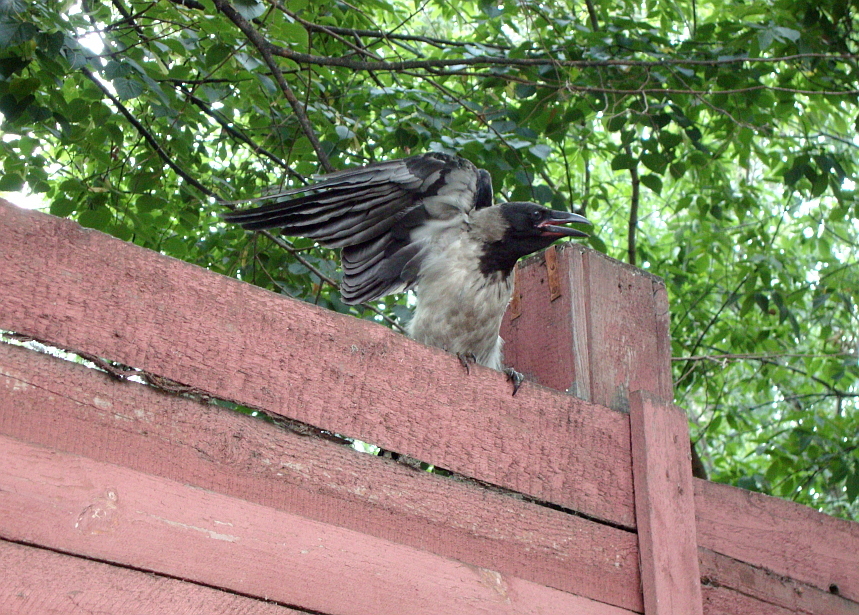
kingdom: Animalia
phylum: Chordata
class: Aves
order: Passeriformes
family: Corvidae
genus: Corvus
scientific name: Corvus cornix
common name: Hooded crow
